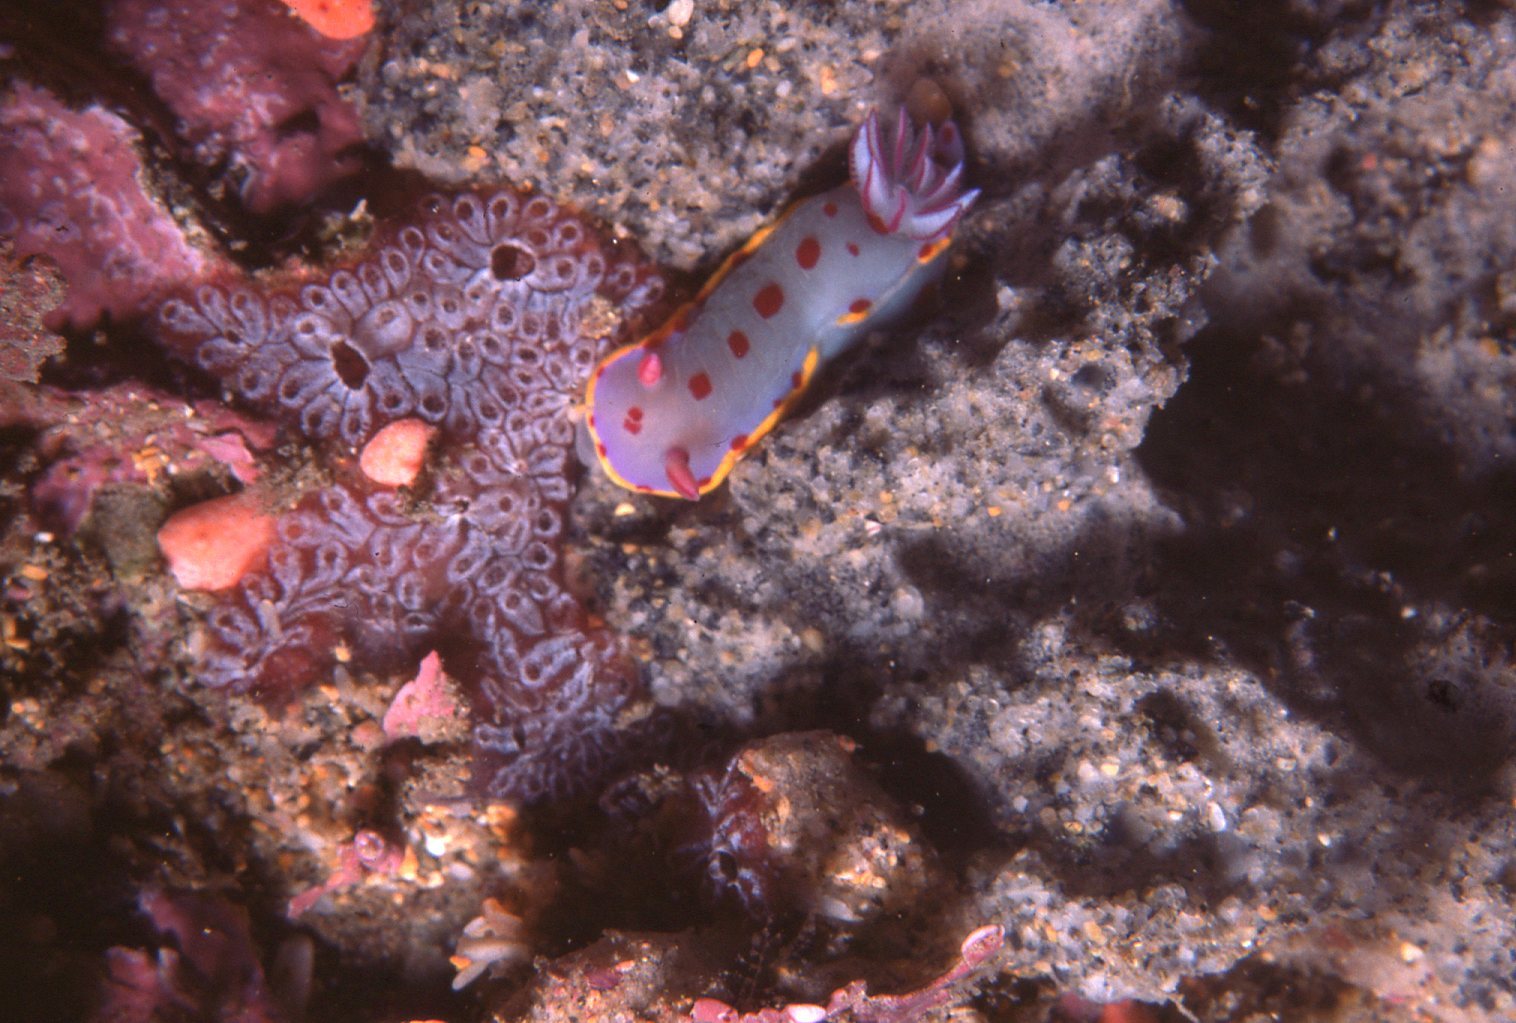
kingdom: Animalia
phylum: Mollusca
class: Gastropoda
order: Nudibranchia
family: Chromodorididae
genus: Hypselodoris
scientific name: Hypselodoris bennetti
